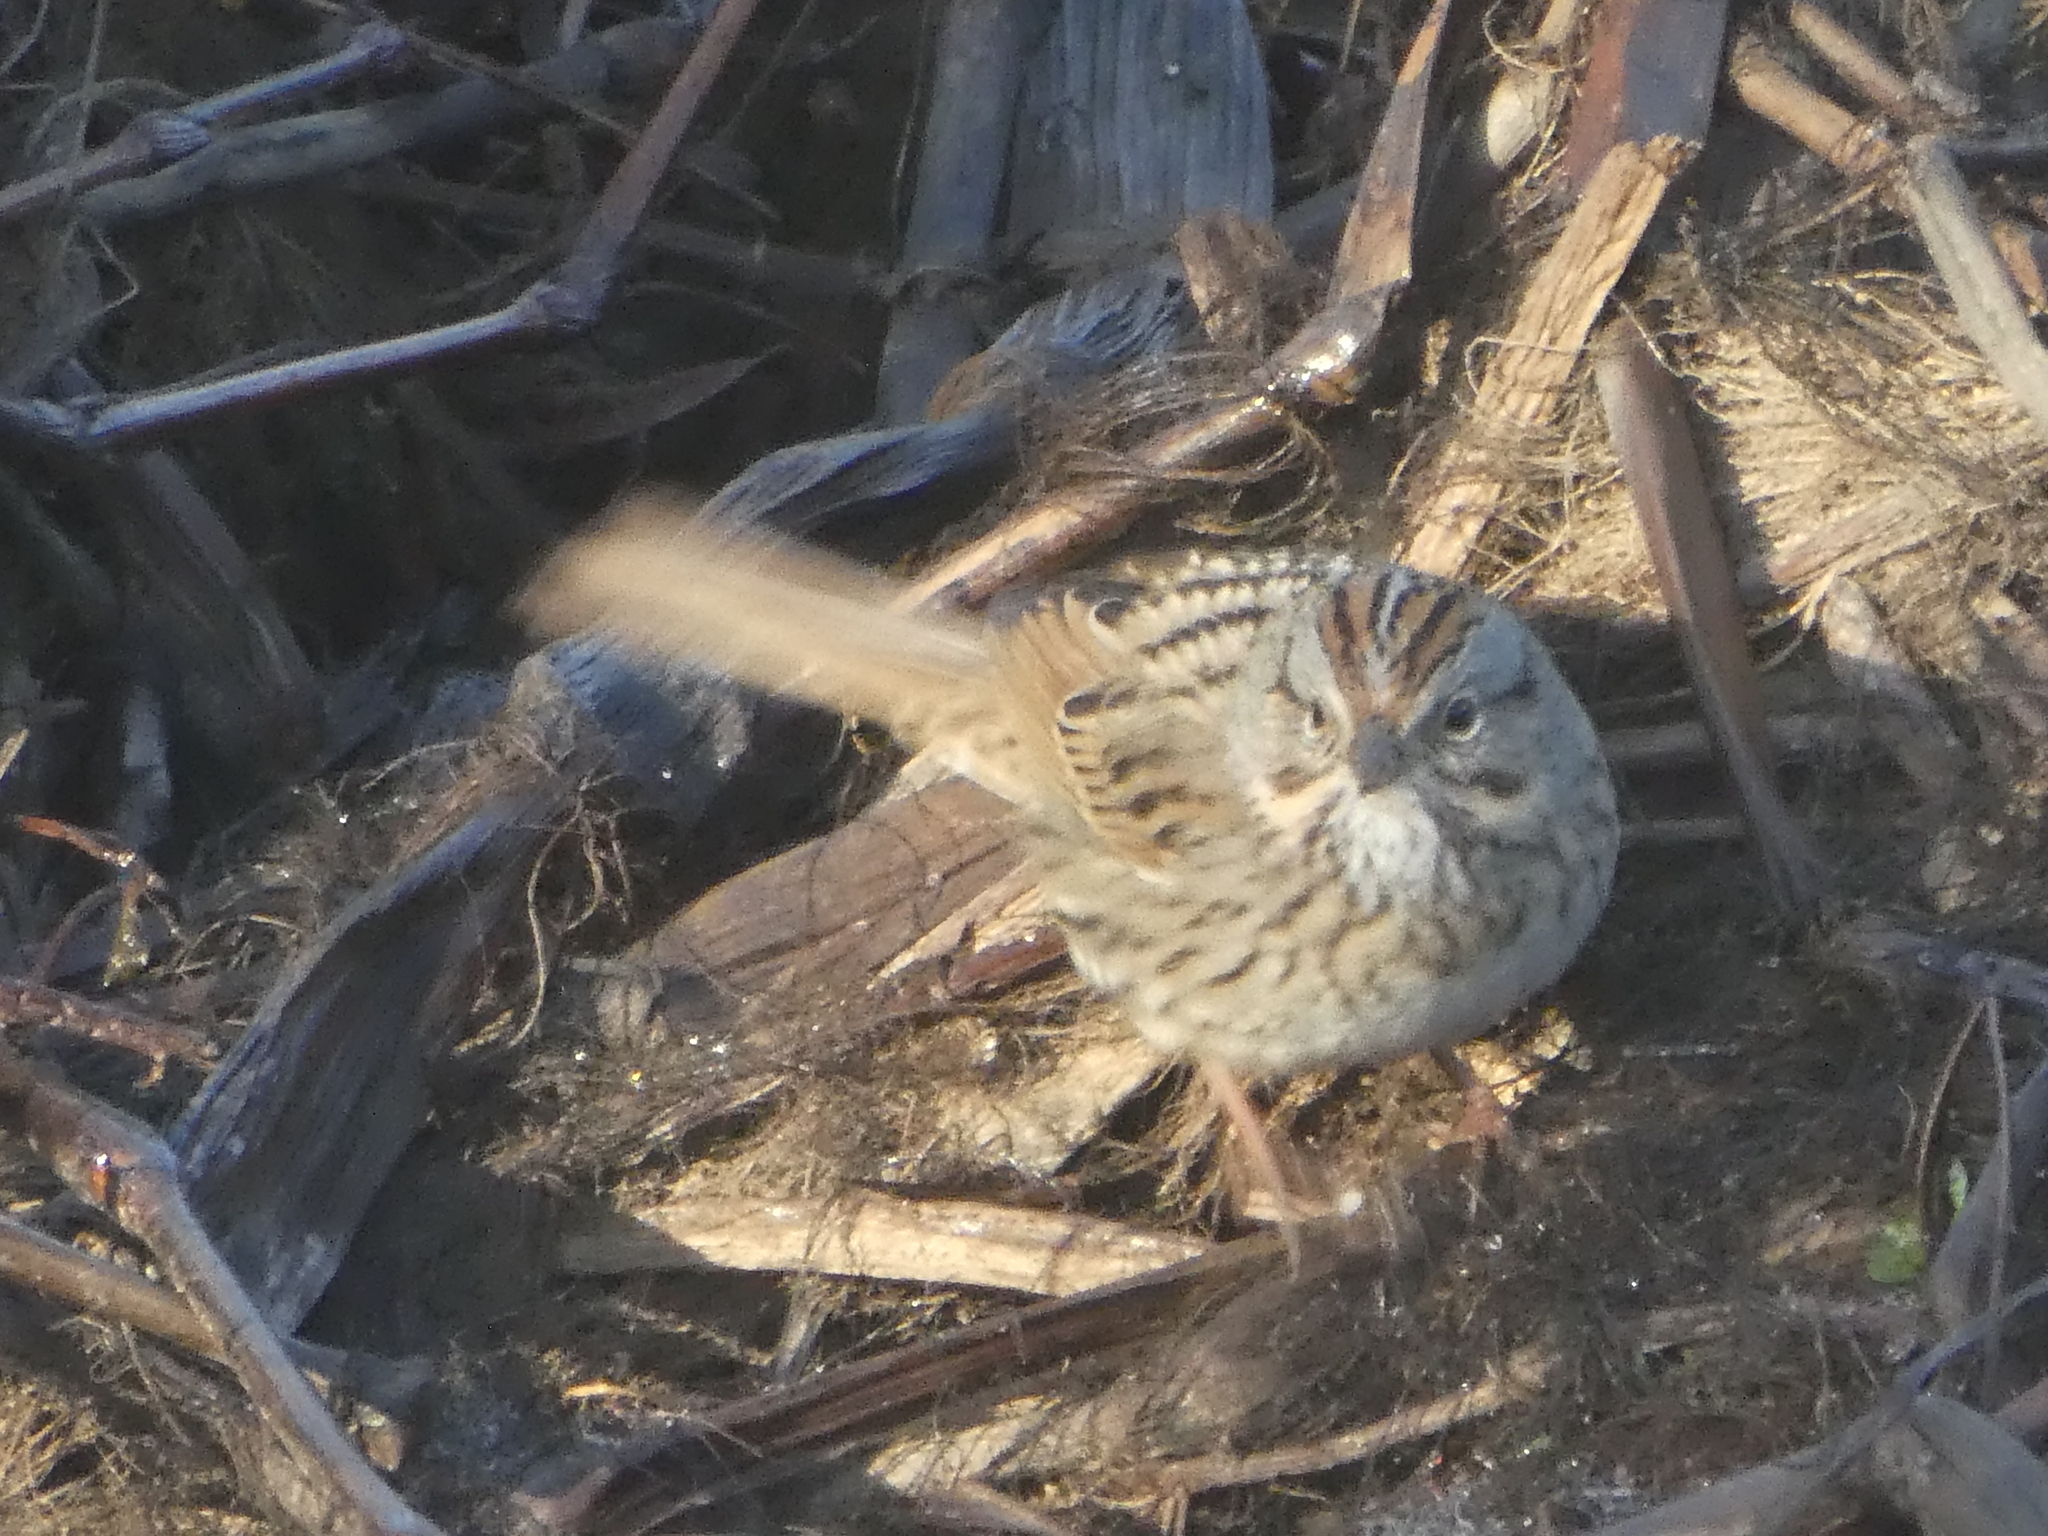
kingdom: Animalia
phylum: Chordata
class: Aves
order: Passeriformes
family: Passerellidae
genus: Melospiza
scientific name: Melospiza lincolnii
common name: Lincoln's sparrow
